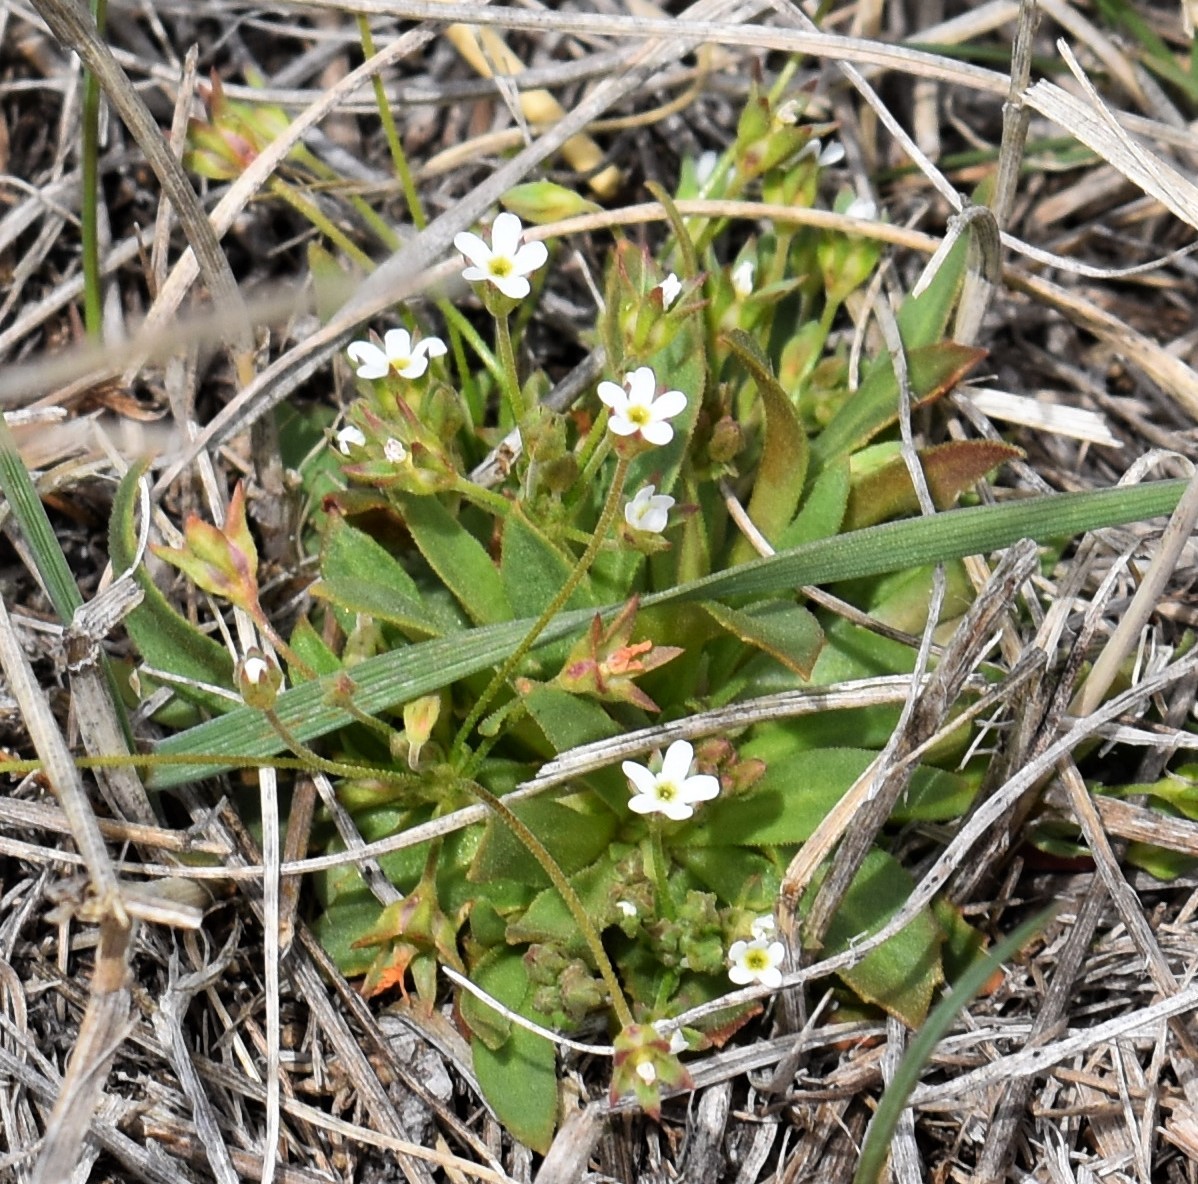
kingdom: Plantae
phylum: Tracheophyta
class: Magnoliopsida
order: Ericales
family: Primulaceae
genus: Androsace
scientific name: Androsace septentrionalis
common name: Hairy northern fairy-candelabra
